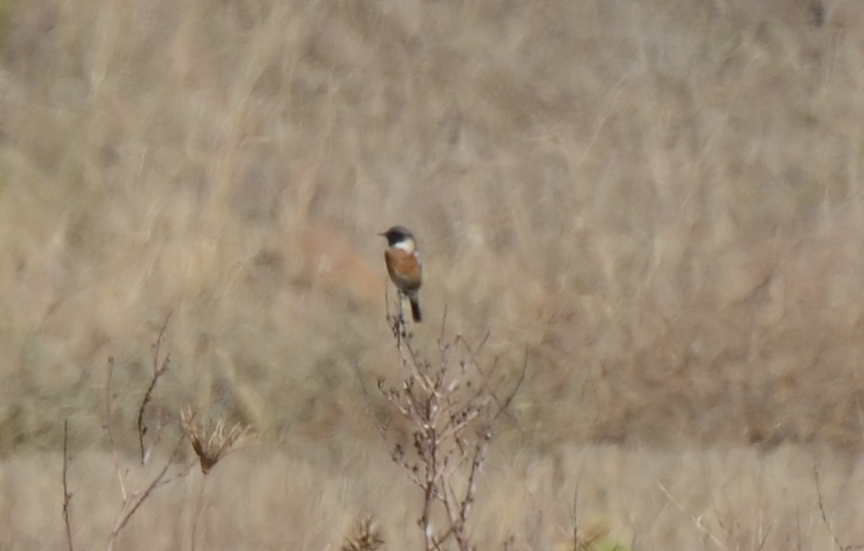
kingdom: Animalia
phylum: Chordata
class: Aves
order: Passeriformes
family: Muscicapidae
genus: Saxicola
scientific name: Saxicola rubicola
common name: European stonechat
